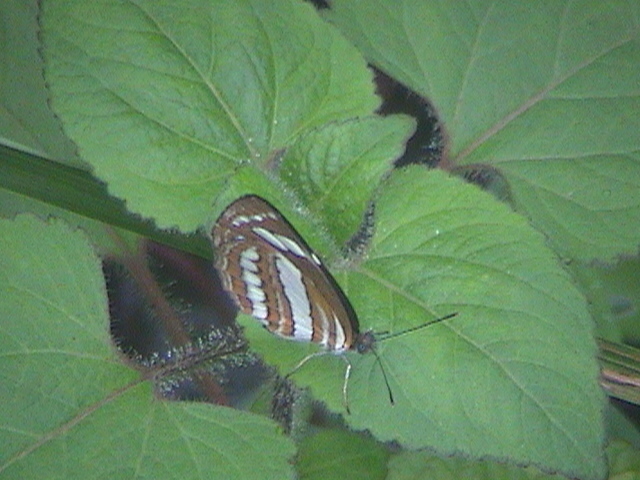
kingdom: Animalia
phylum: Arthropoda
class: Insecta
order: Lepidoptera
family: Nymphalidae
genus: Neptis
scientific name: Neptis hylas
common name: Common sailer
